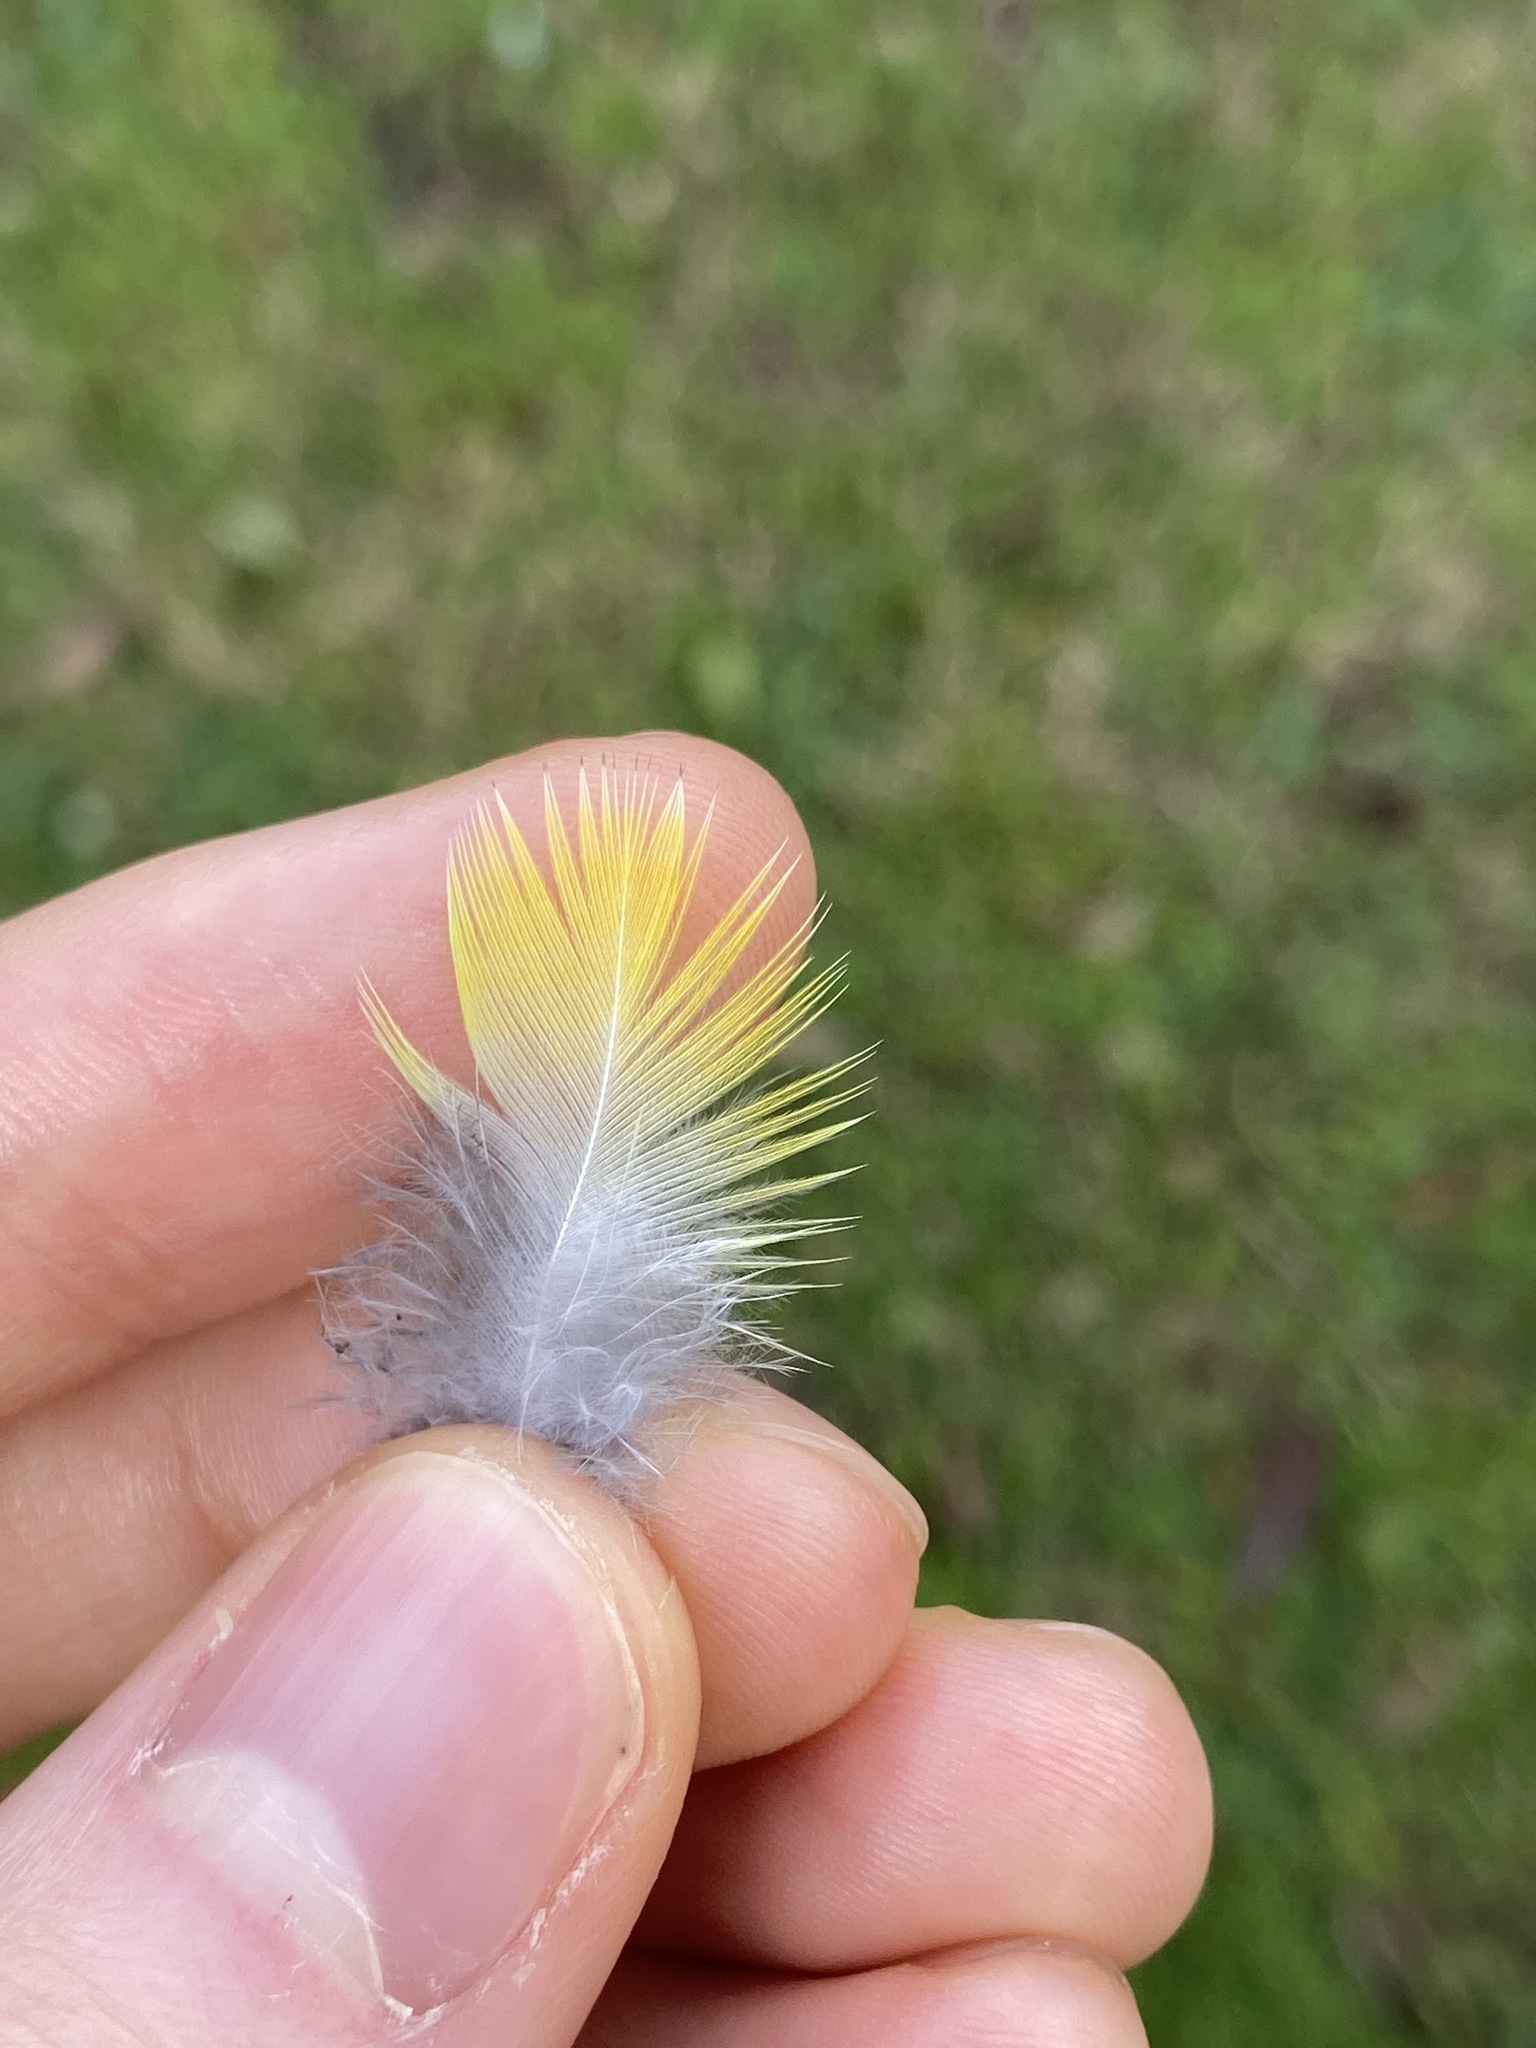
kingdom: Animalia
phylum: Chordata
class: Aves
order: Psittaciformes
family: Psittacidae
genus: Trichoglossus
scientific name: Trichoglossus haematodus
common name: Coconut lorikeet
